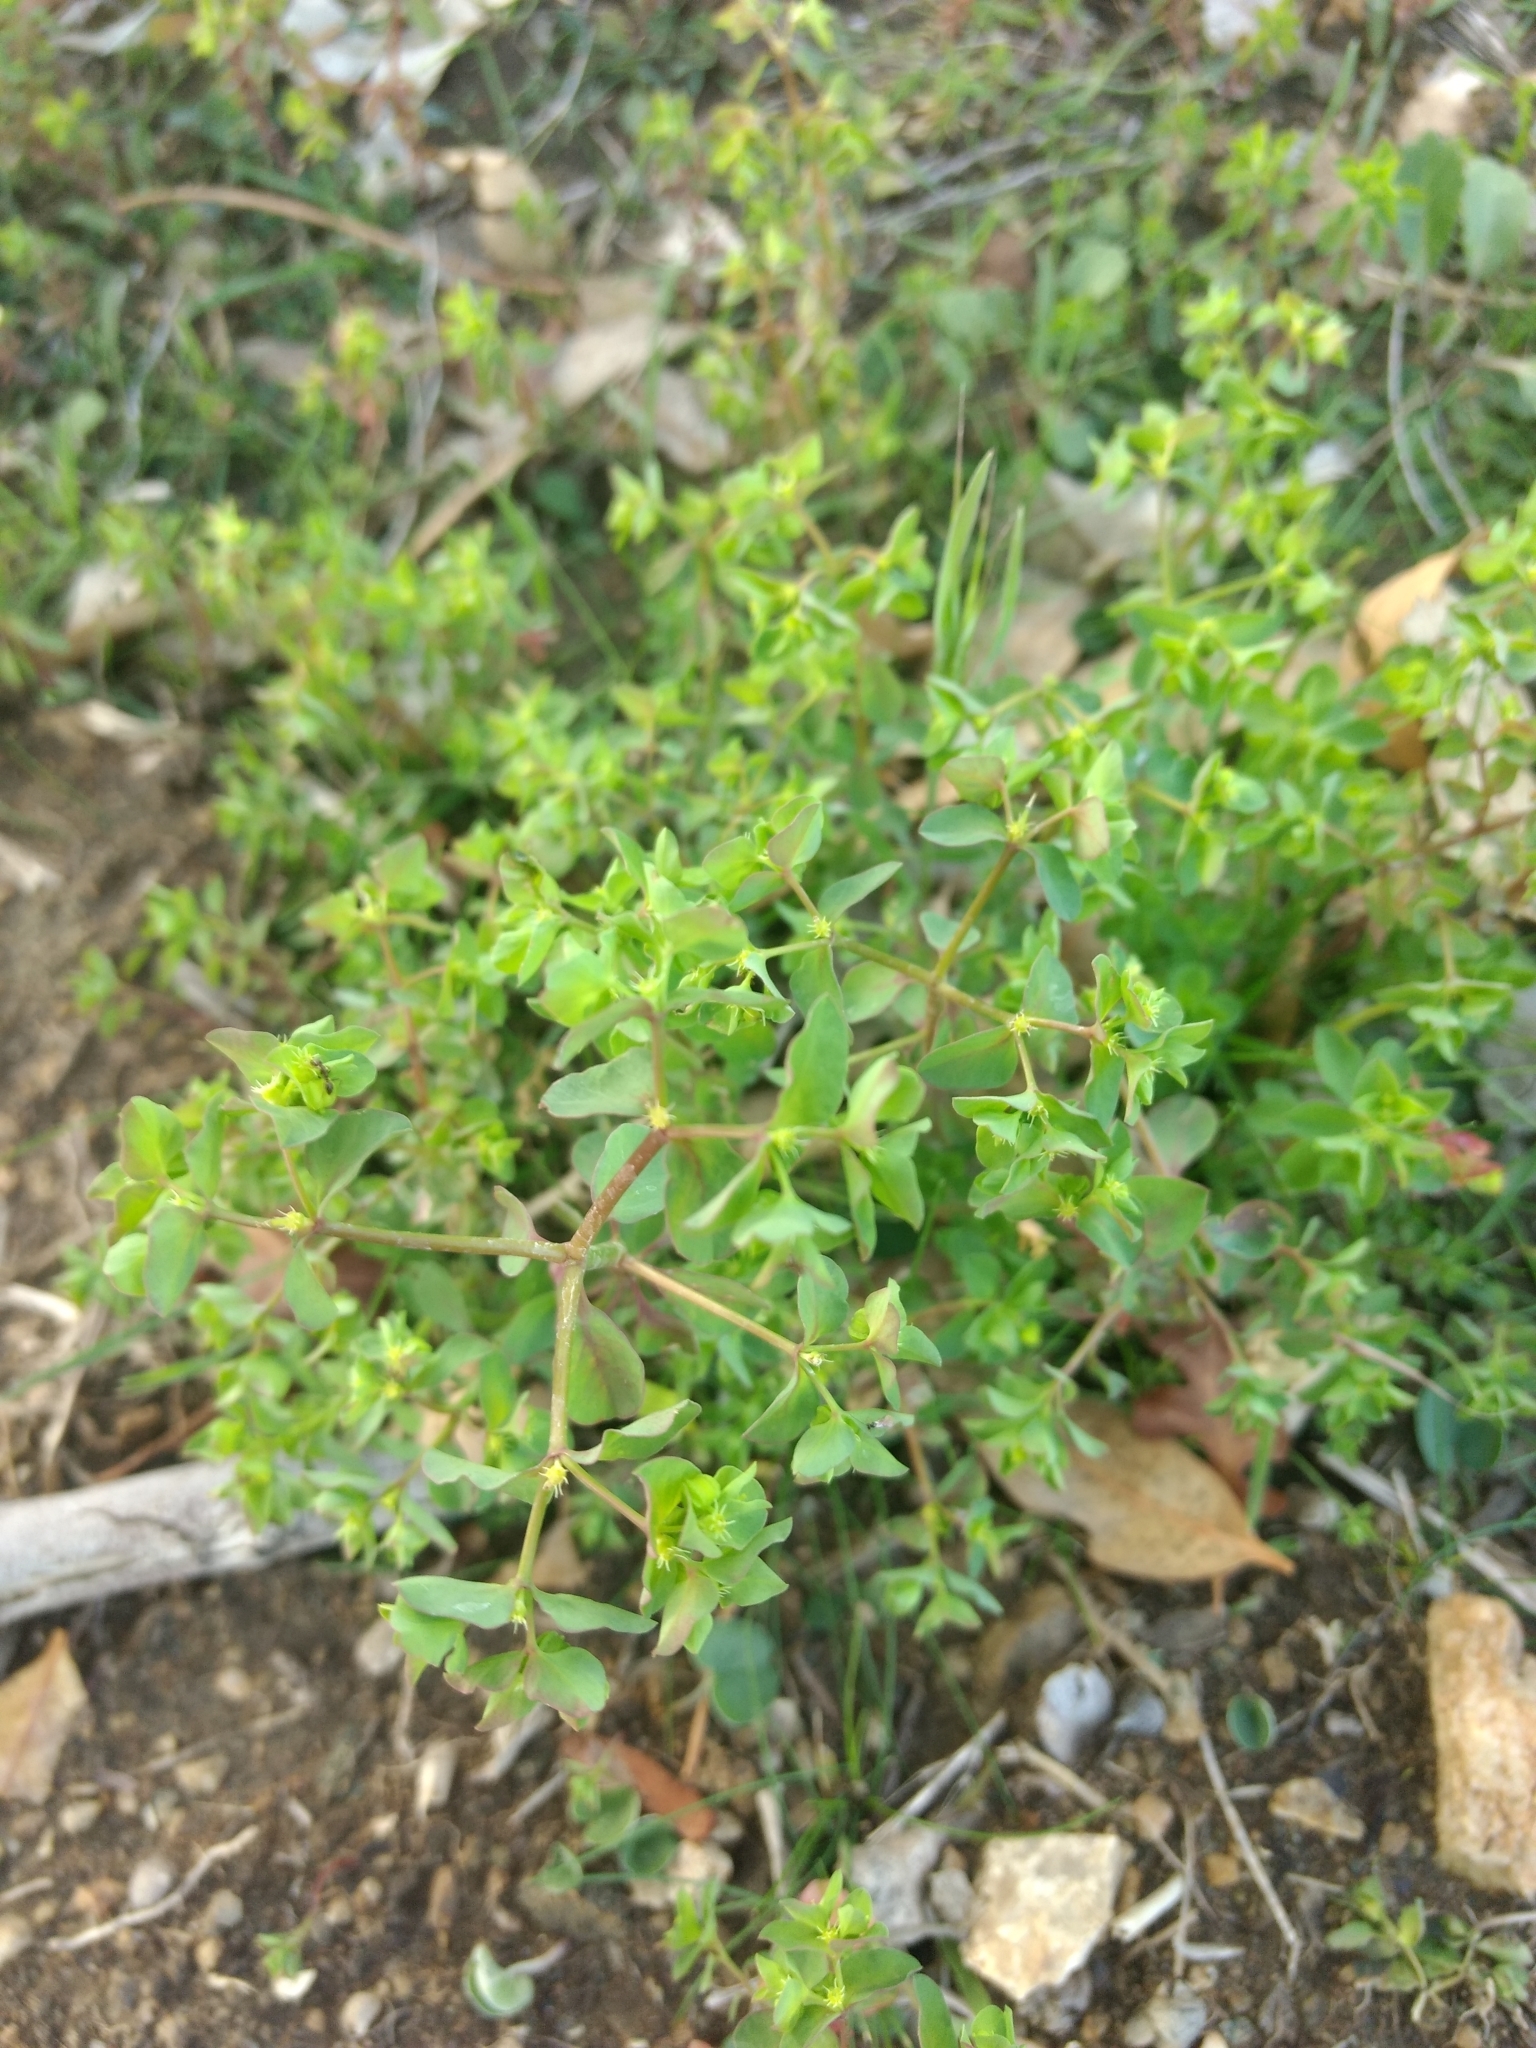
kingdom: Plantae
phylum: Tracheophyta
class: Magnoliopsida
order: Malpighiales
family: Euphorbiaceae
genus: Euphorbia
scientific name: Euphorbia peplus
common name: Petty spurge
